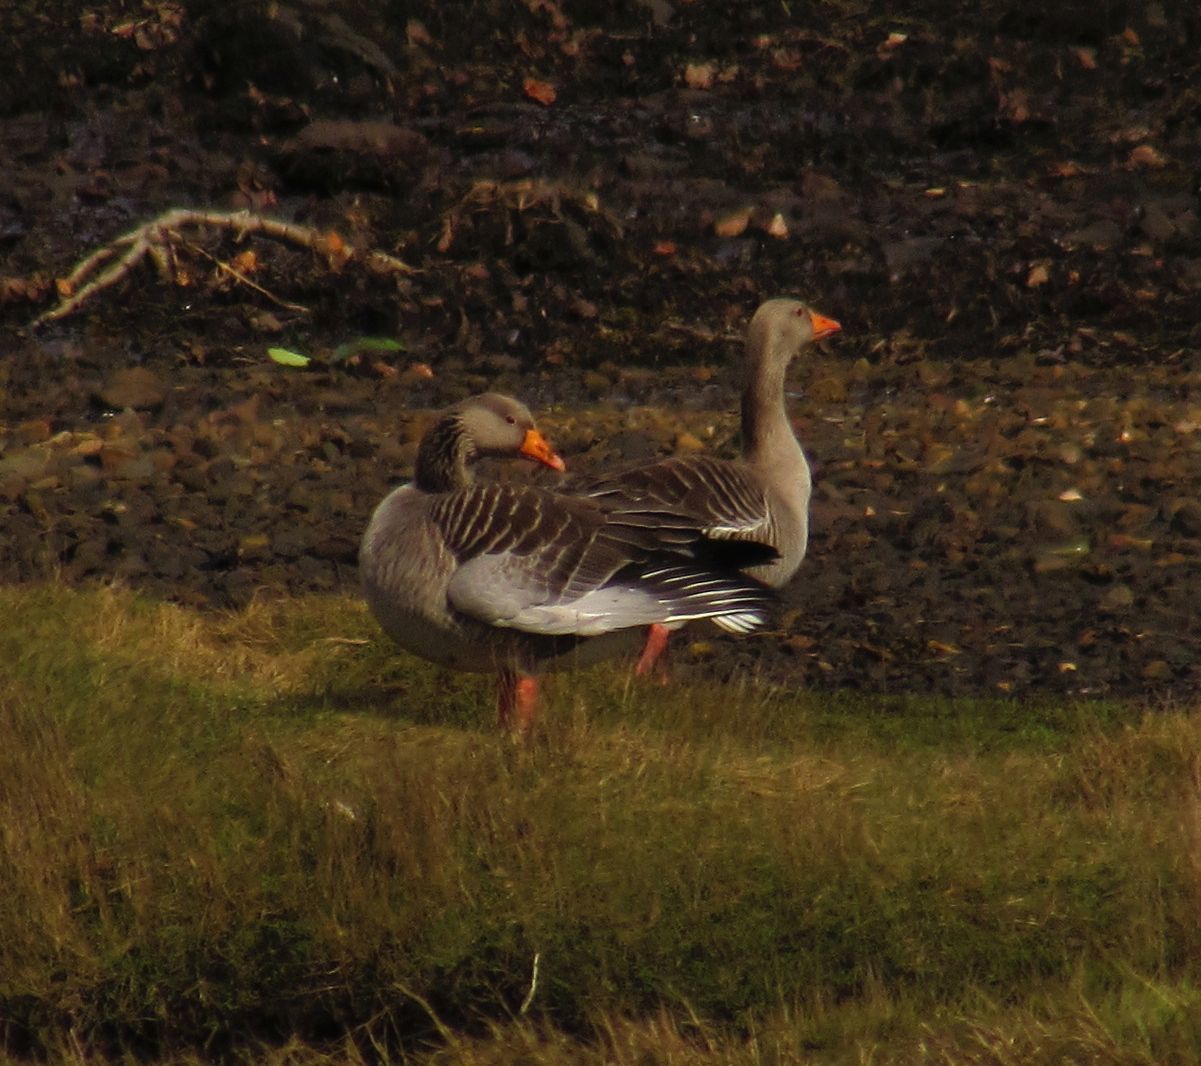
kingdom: Animalia
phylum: Chordata
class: Aves
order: Anseriformes
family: Anatidae
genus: Anser
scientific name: Anser anser
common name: Greylag goose
